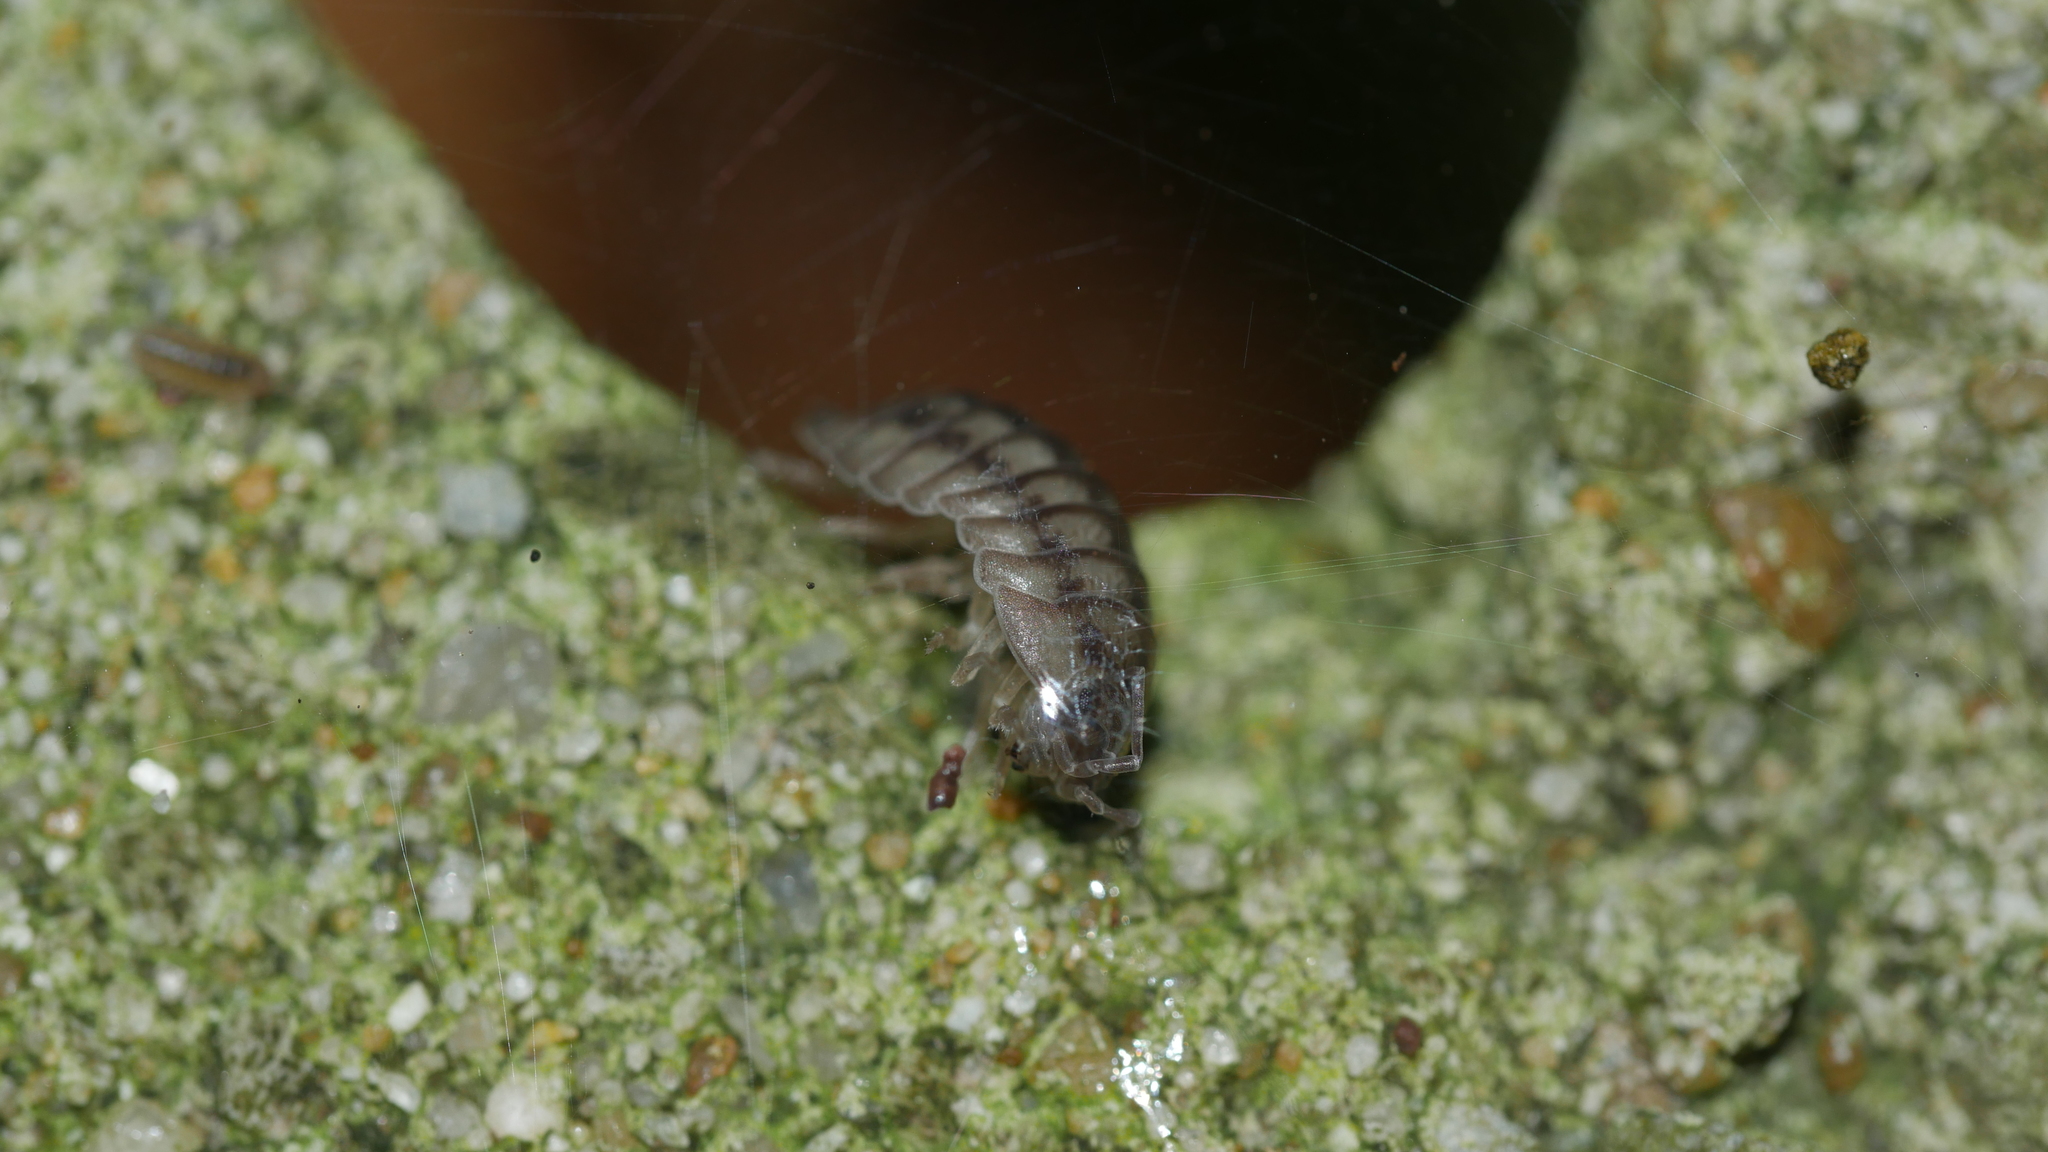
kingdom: Animalia
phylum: Arthropoda
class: Malacostraca
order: Isopoda
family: Armadillidiidae
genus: Armadillidium
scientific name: Armadillidium nasatum
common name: Isopod
